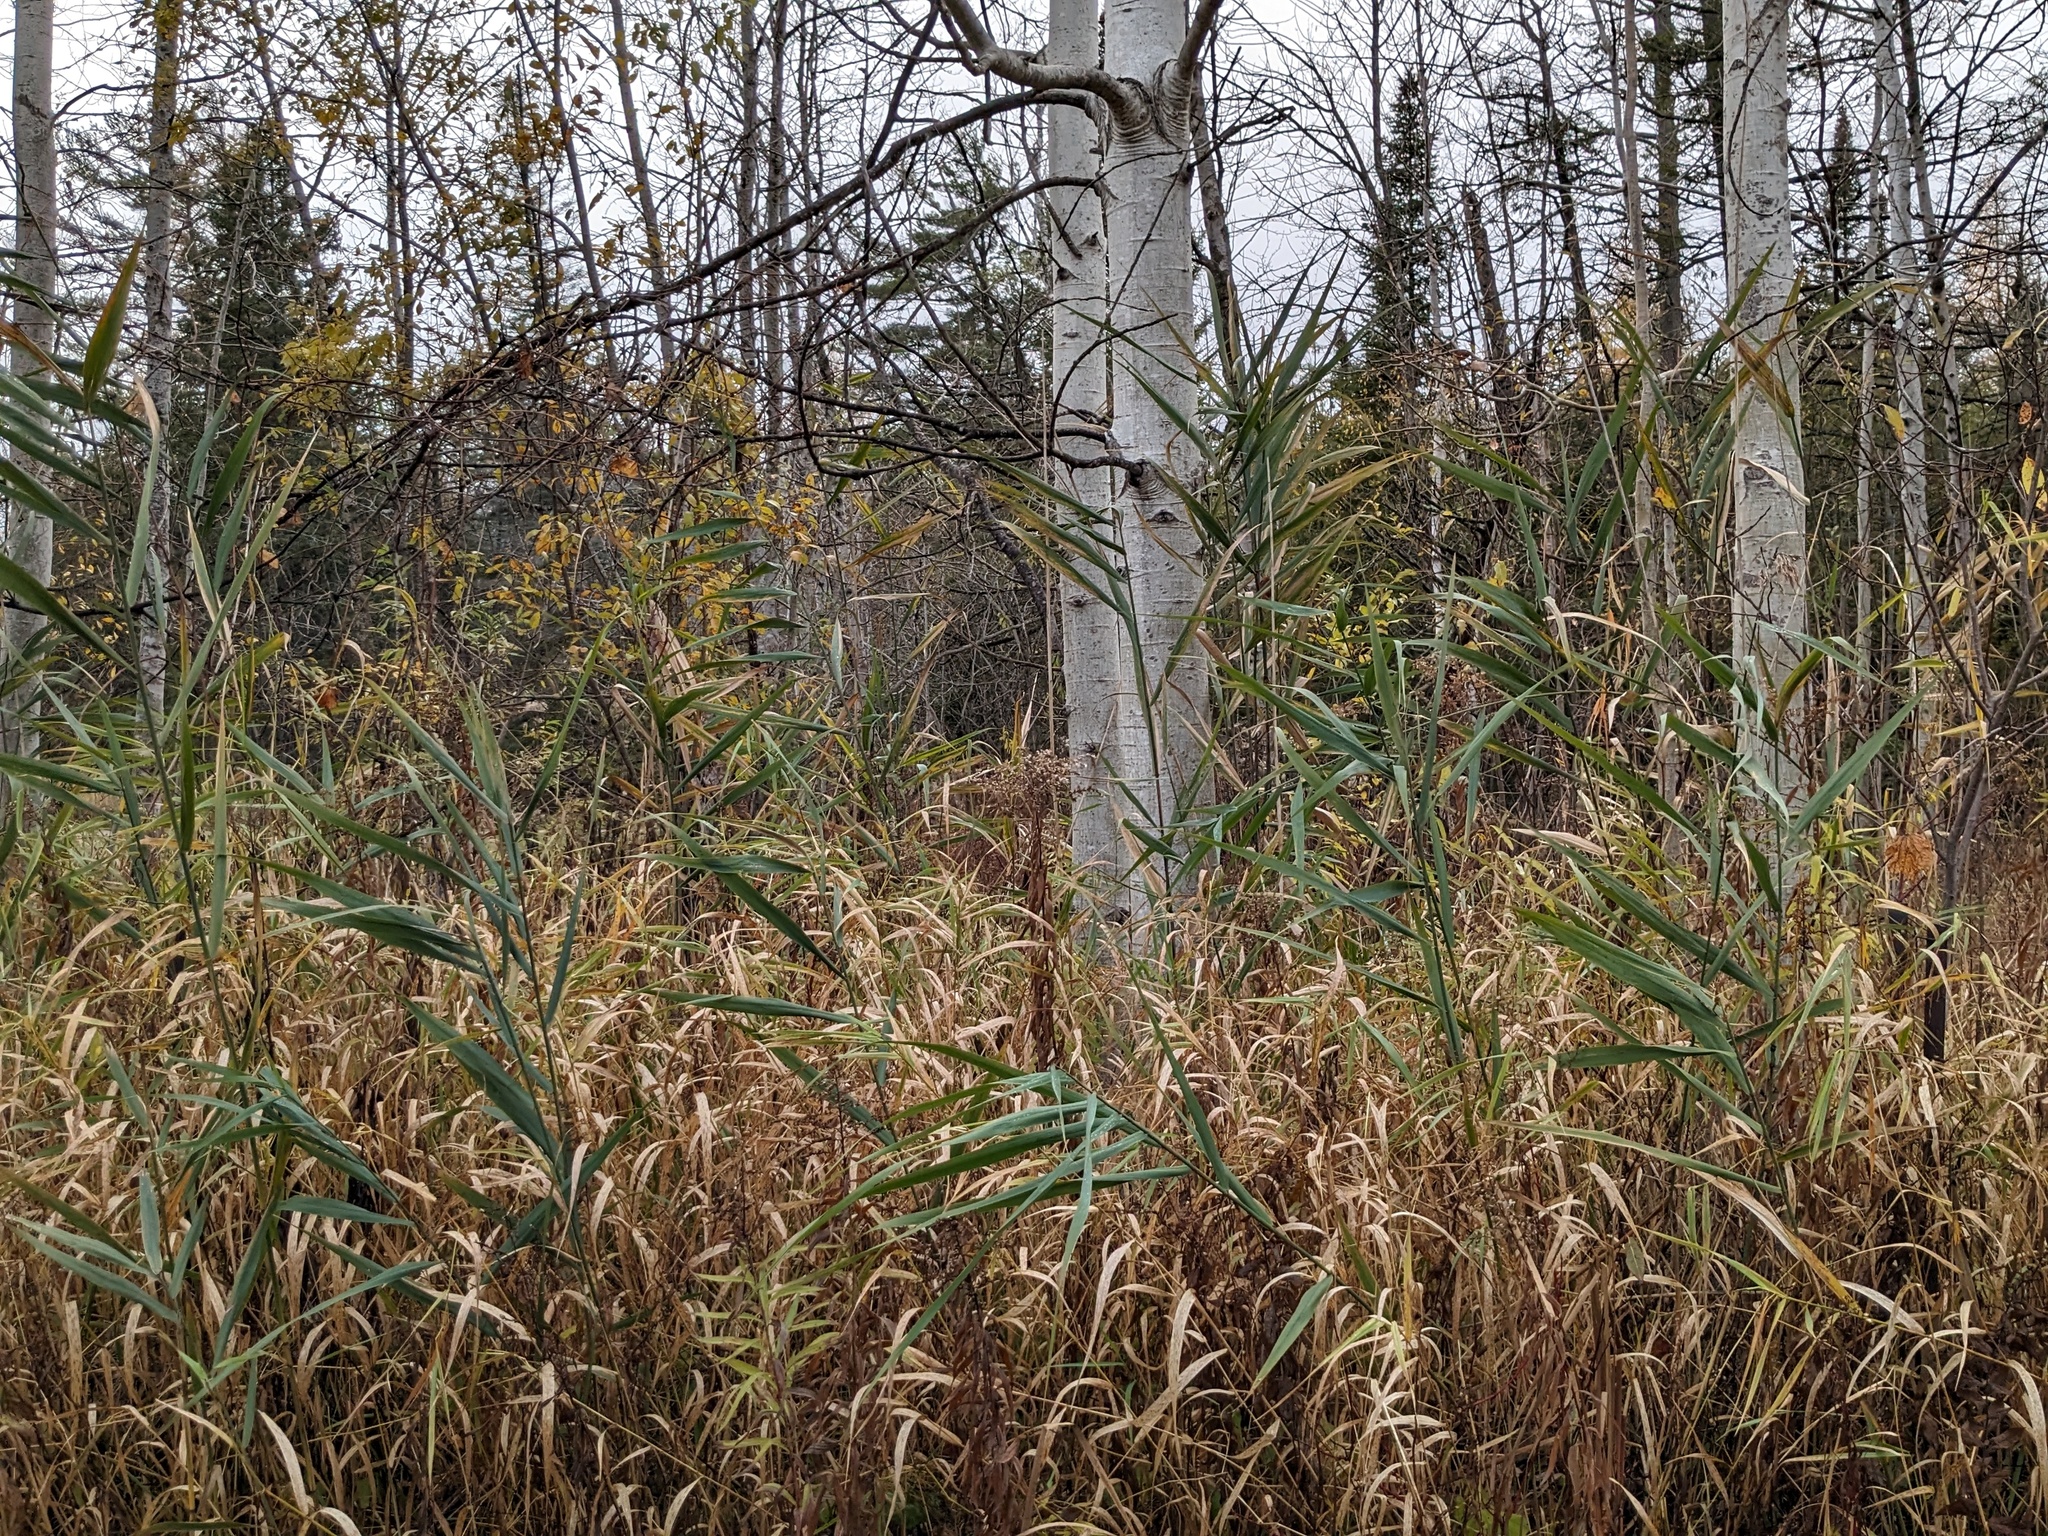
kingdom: Plantae
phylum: Tracheophyta
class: Liliopsida
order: Poales
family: Poaceae
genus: Phragmites
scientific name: Phragmites australis
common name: Common reed
